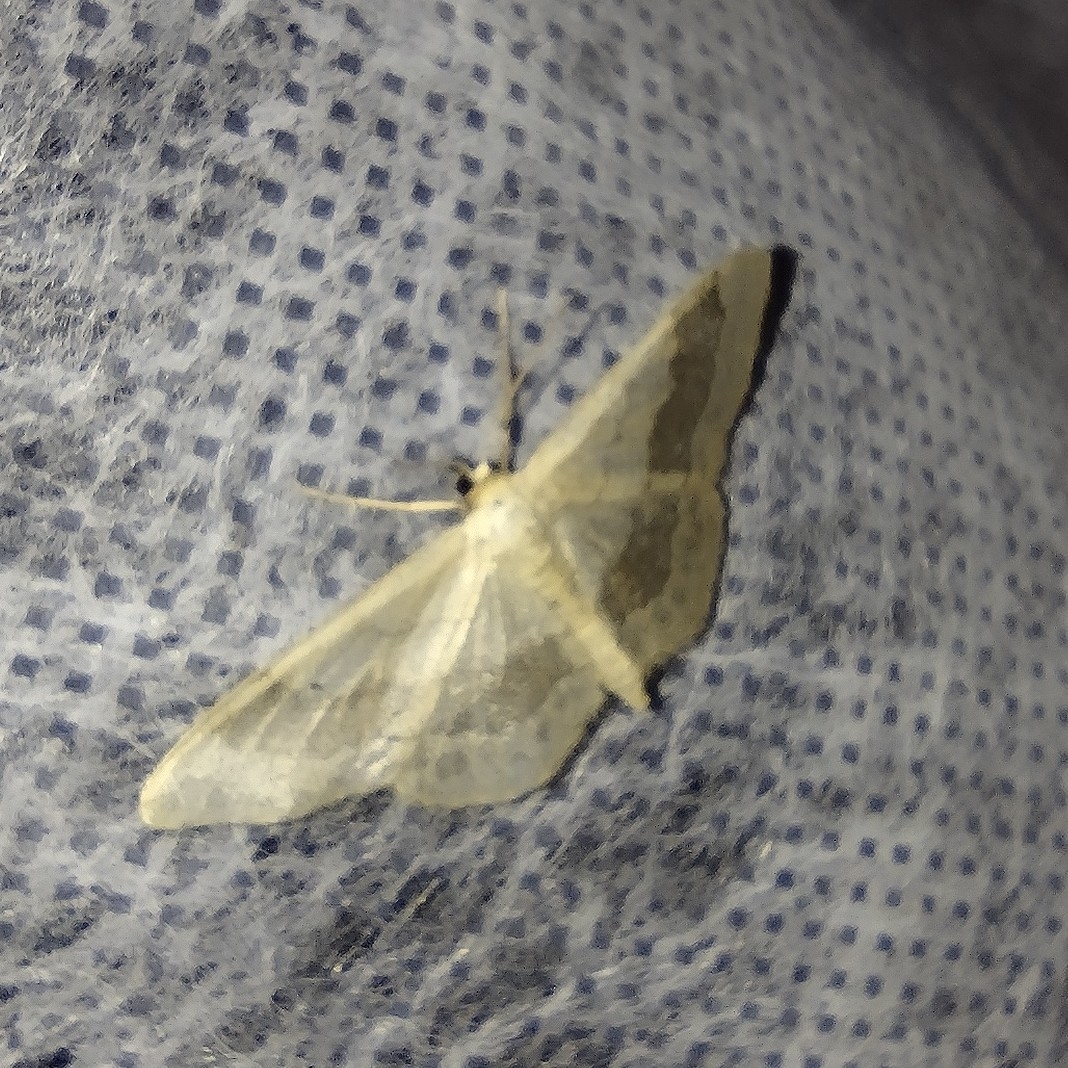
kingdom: Animalia
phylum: Arthropoda
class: Insecta
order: Lepidoptera
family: Geometridae
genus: Idaea
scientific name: Idaea aversata
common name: Riband wave
